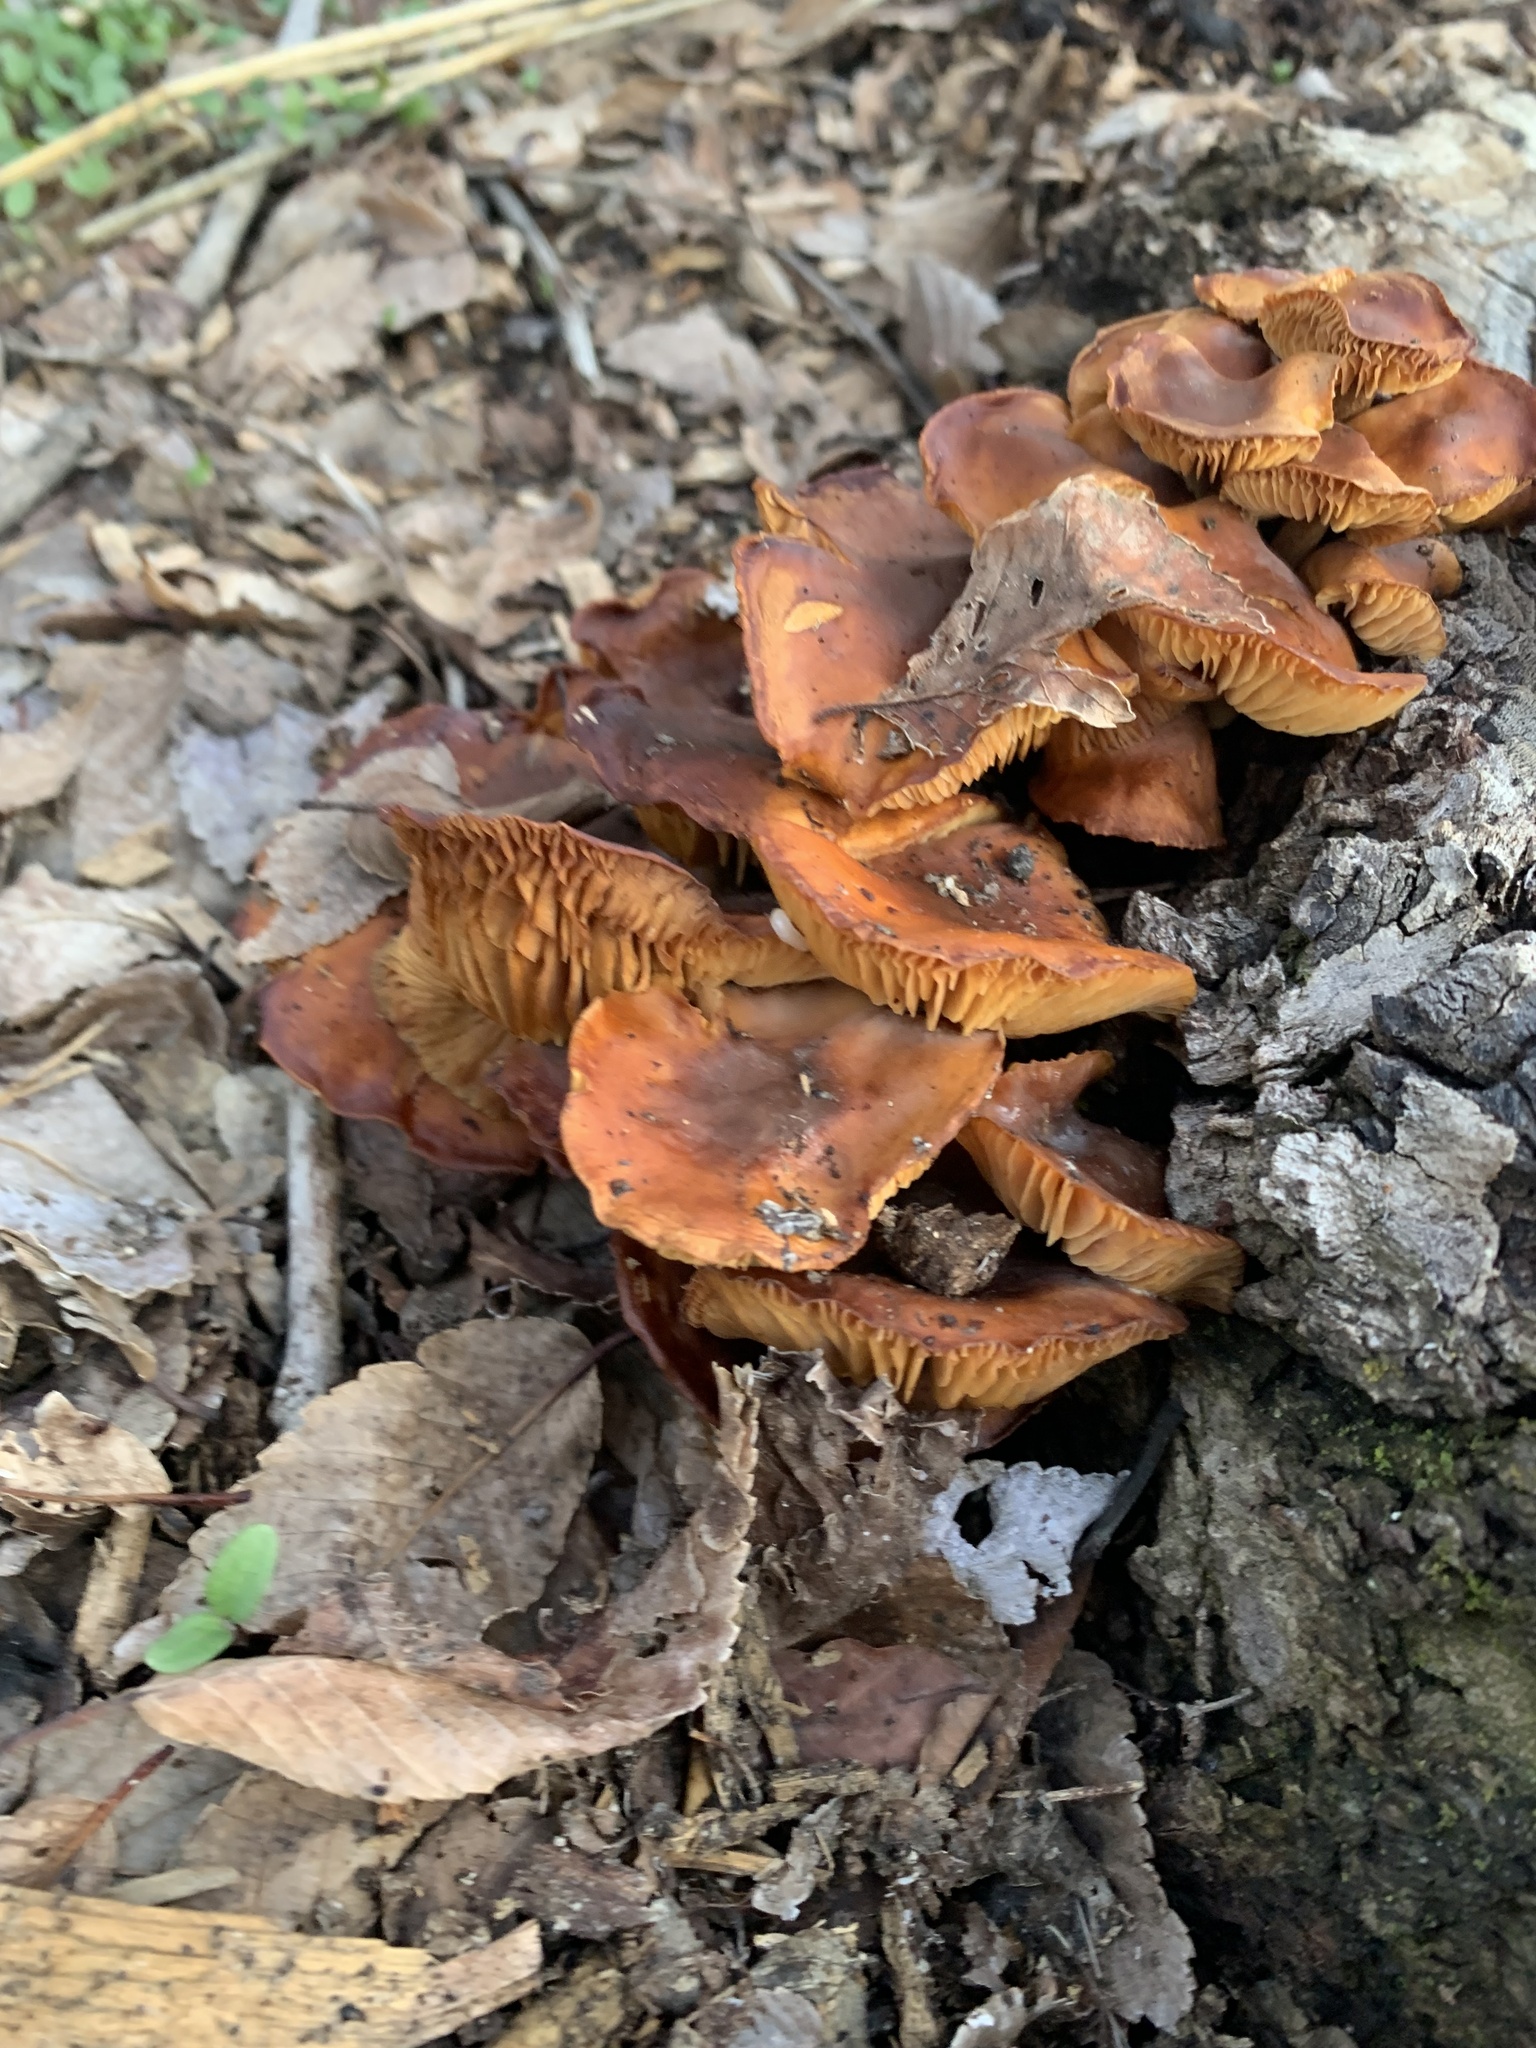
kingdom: Fungi
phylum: Basidiomycota
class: Agaricomycetes
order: Agaricales
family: Physalacriaceae
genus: Flammulina
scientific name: Flammulina velutipes
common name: Velvet shank
